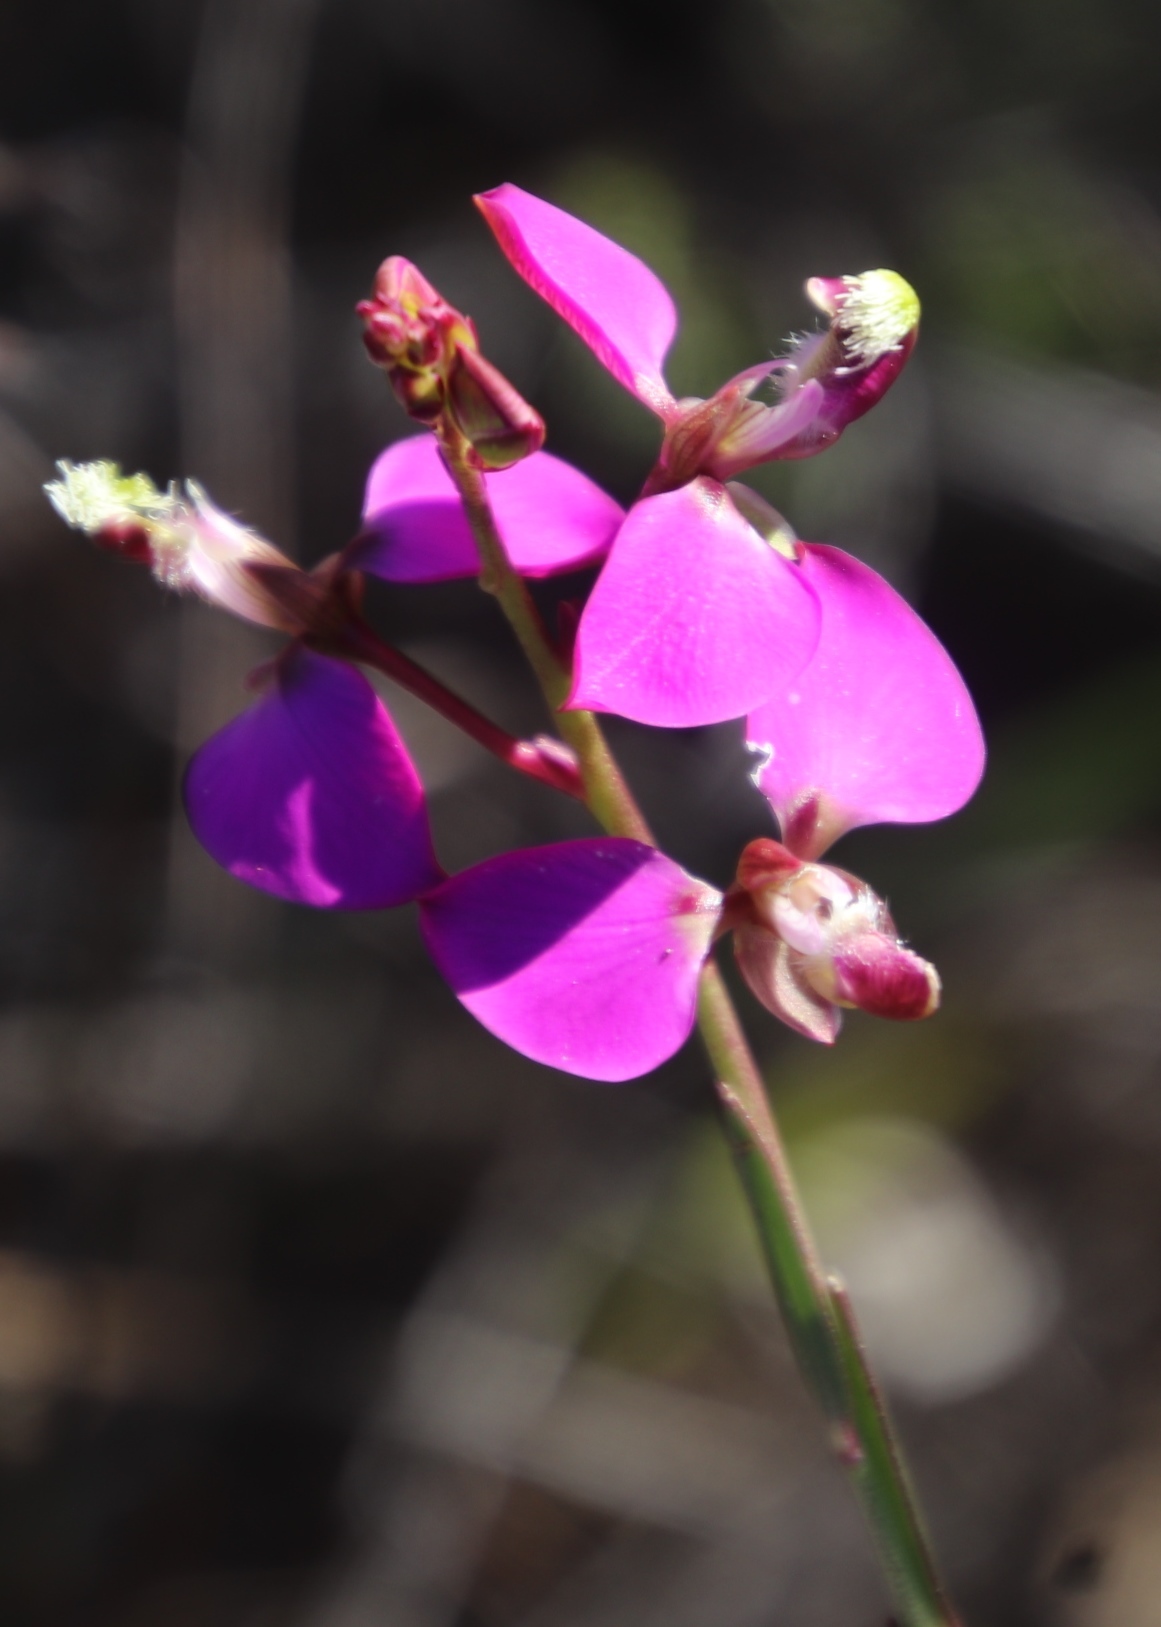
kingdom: Plantae
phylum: Tracheophyta
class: Magnoliopsida
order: Fabales
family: Polygalaceae
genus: Polygala
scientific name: Polygala bracteolata
